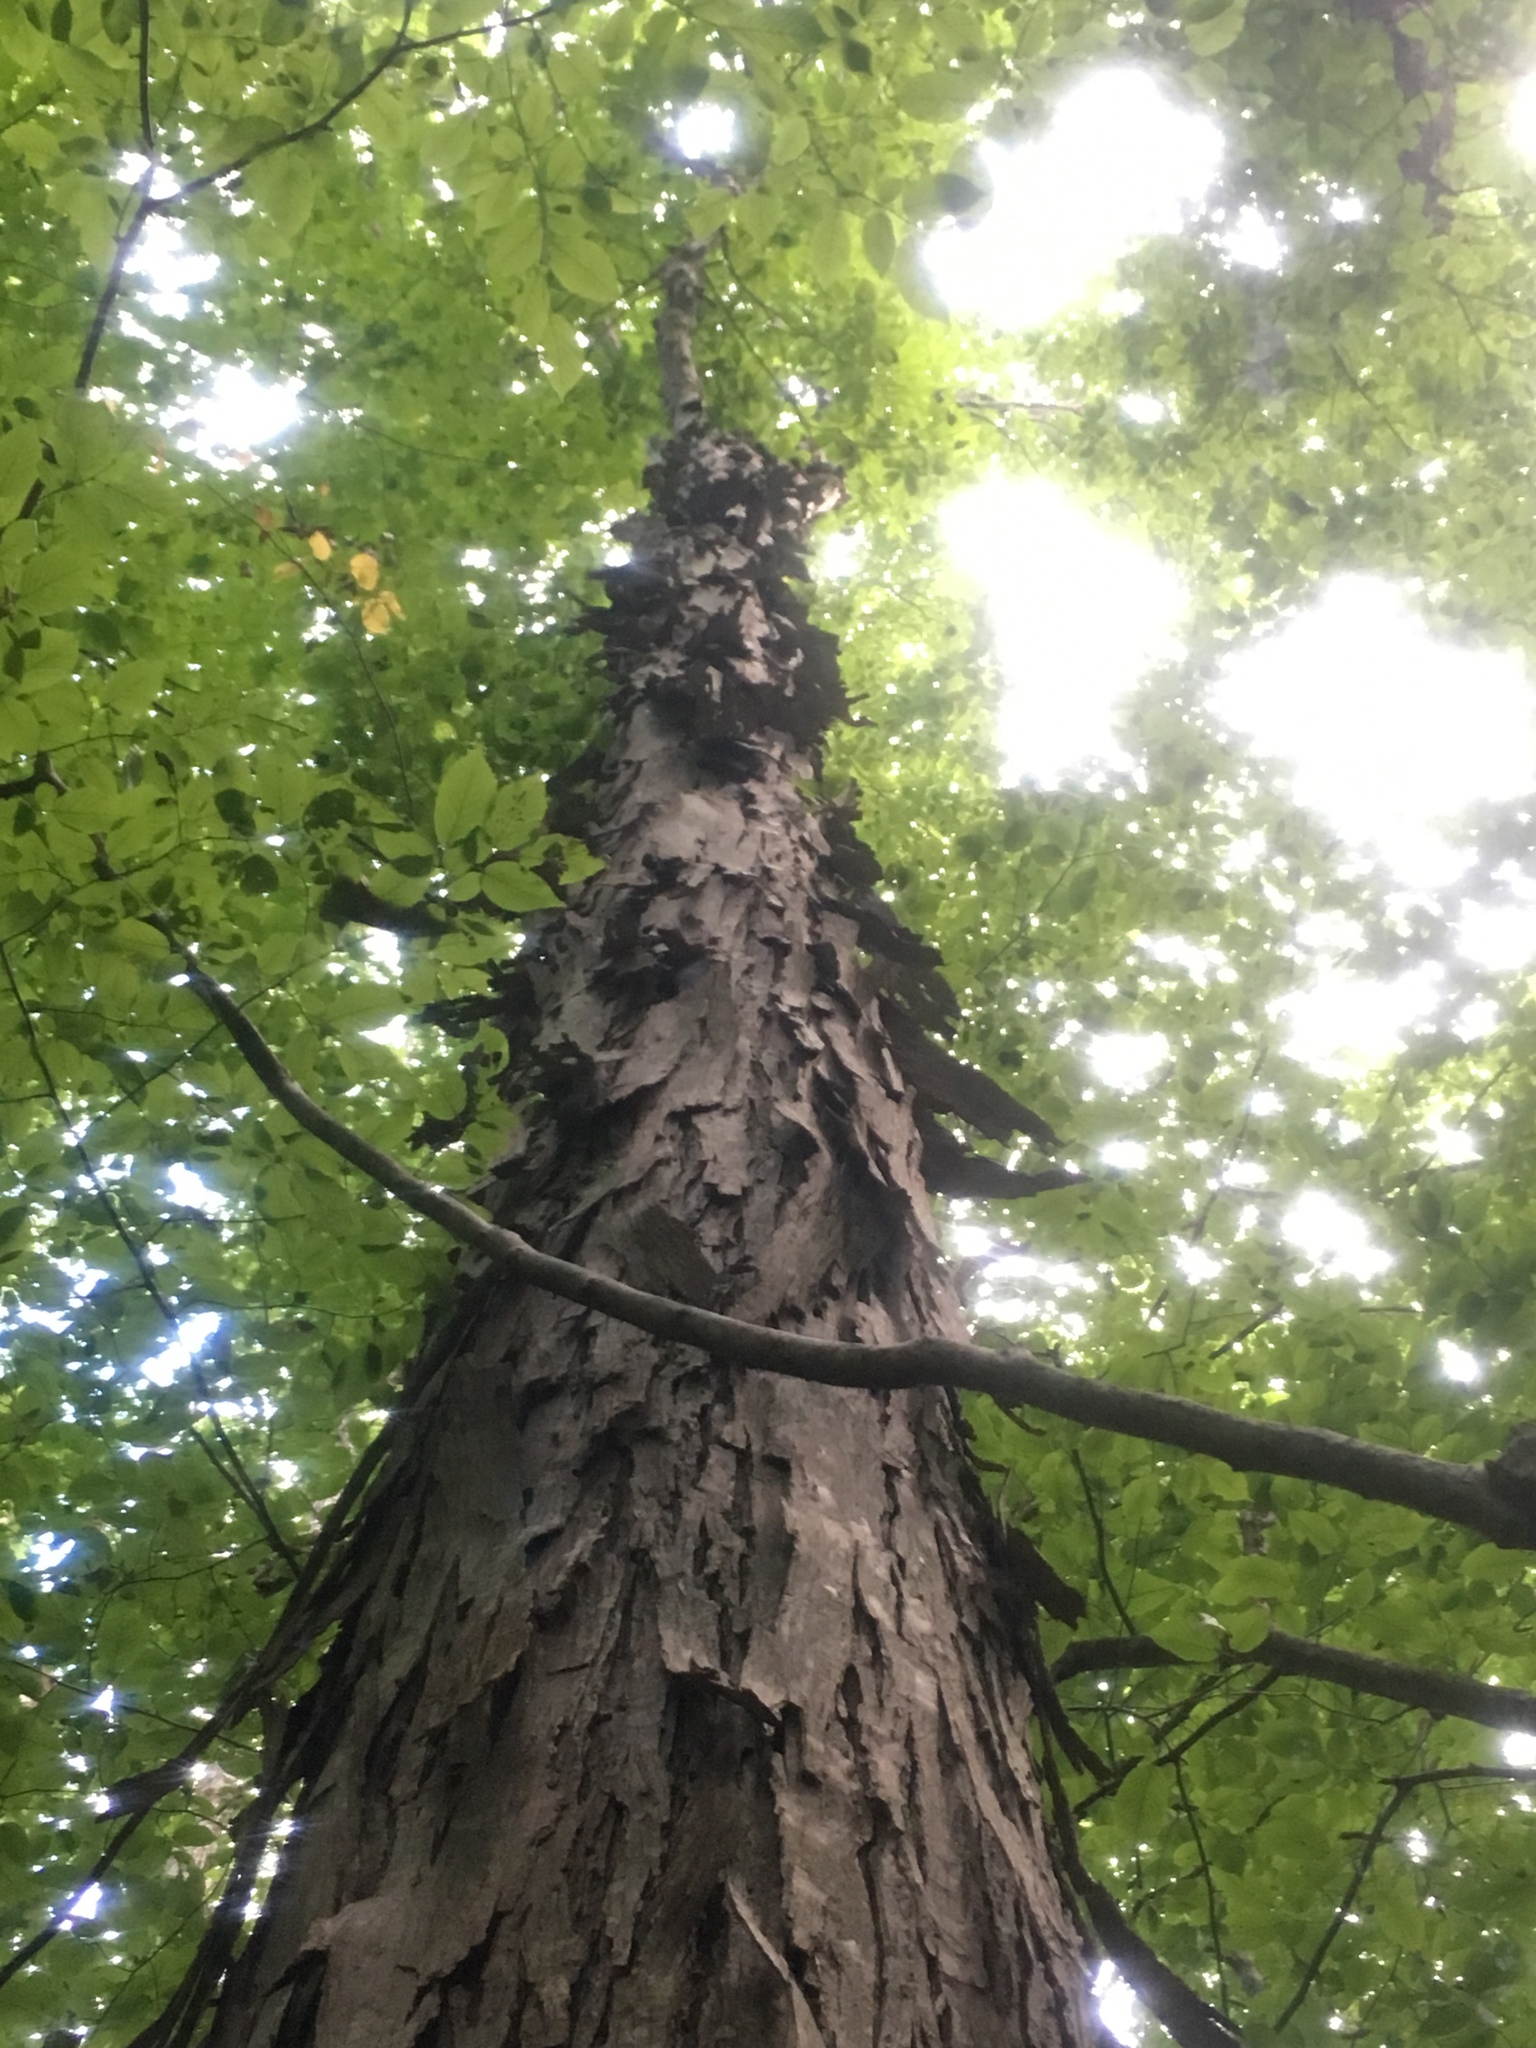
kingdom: Plantae
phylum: Tracheophyta
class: Magnoliopsida
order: Fagales
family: Juglandaceae
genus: Carya
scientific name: Carya ovata
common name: Shagbark hickory
